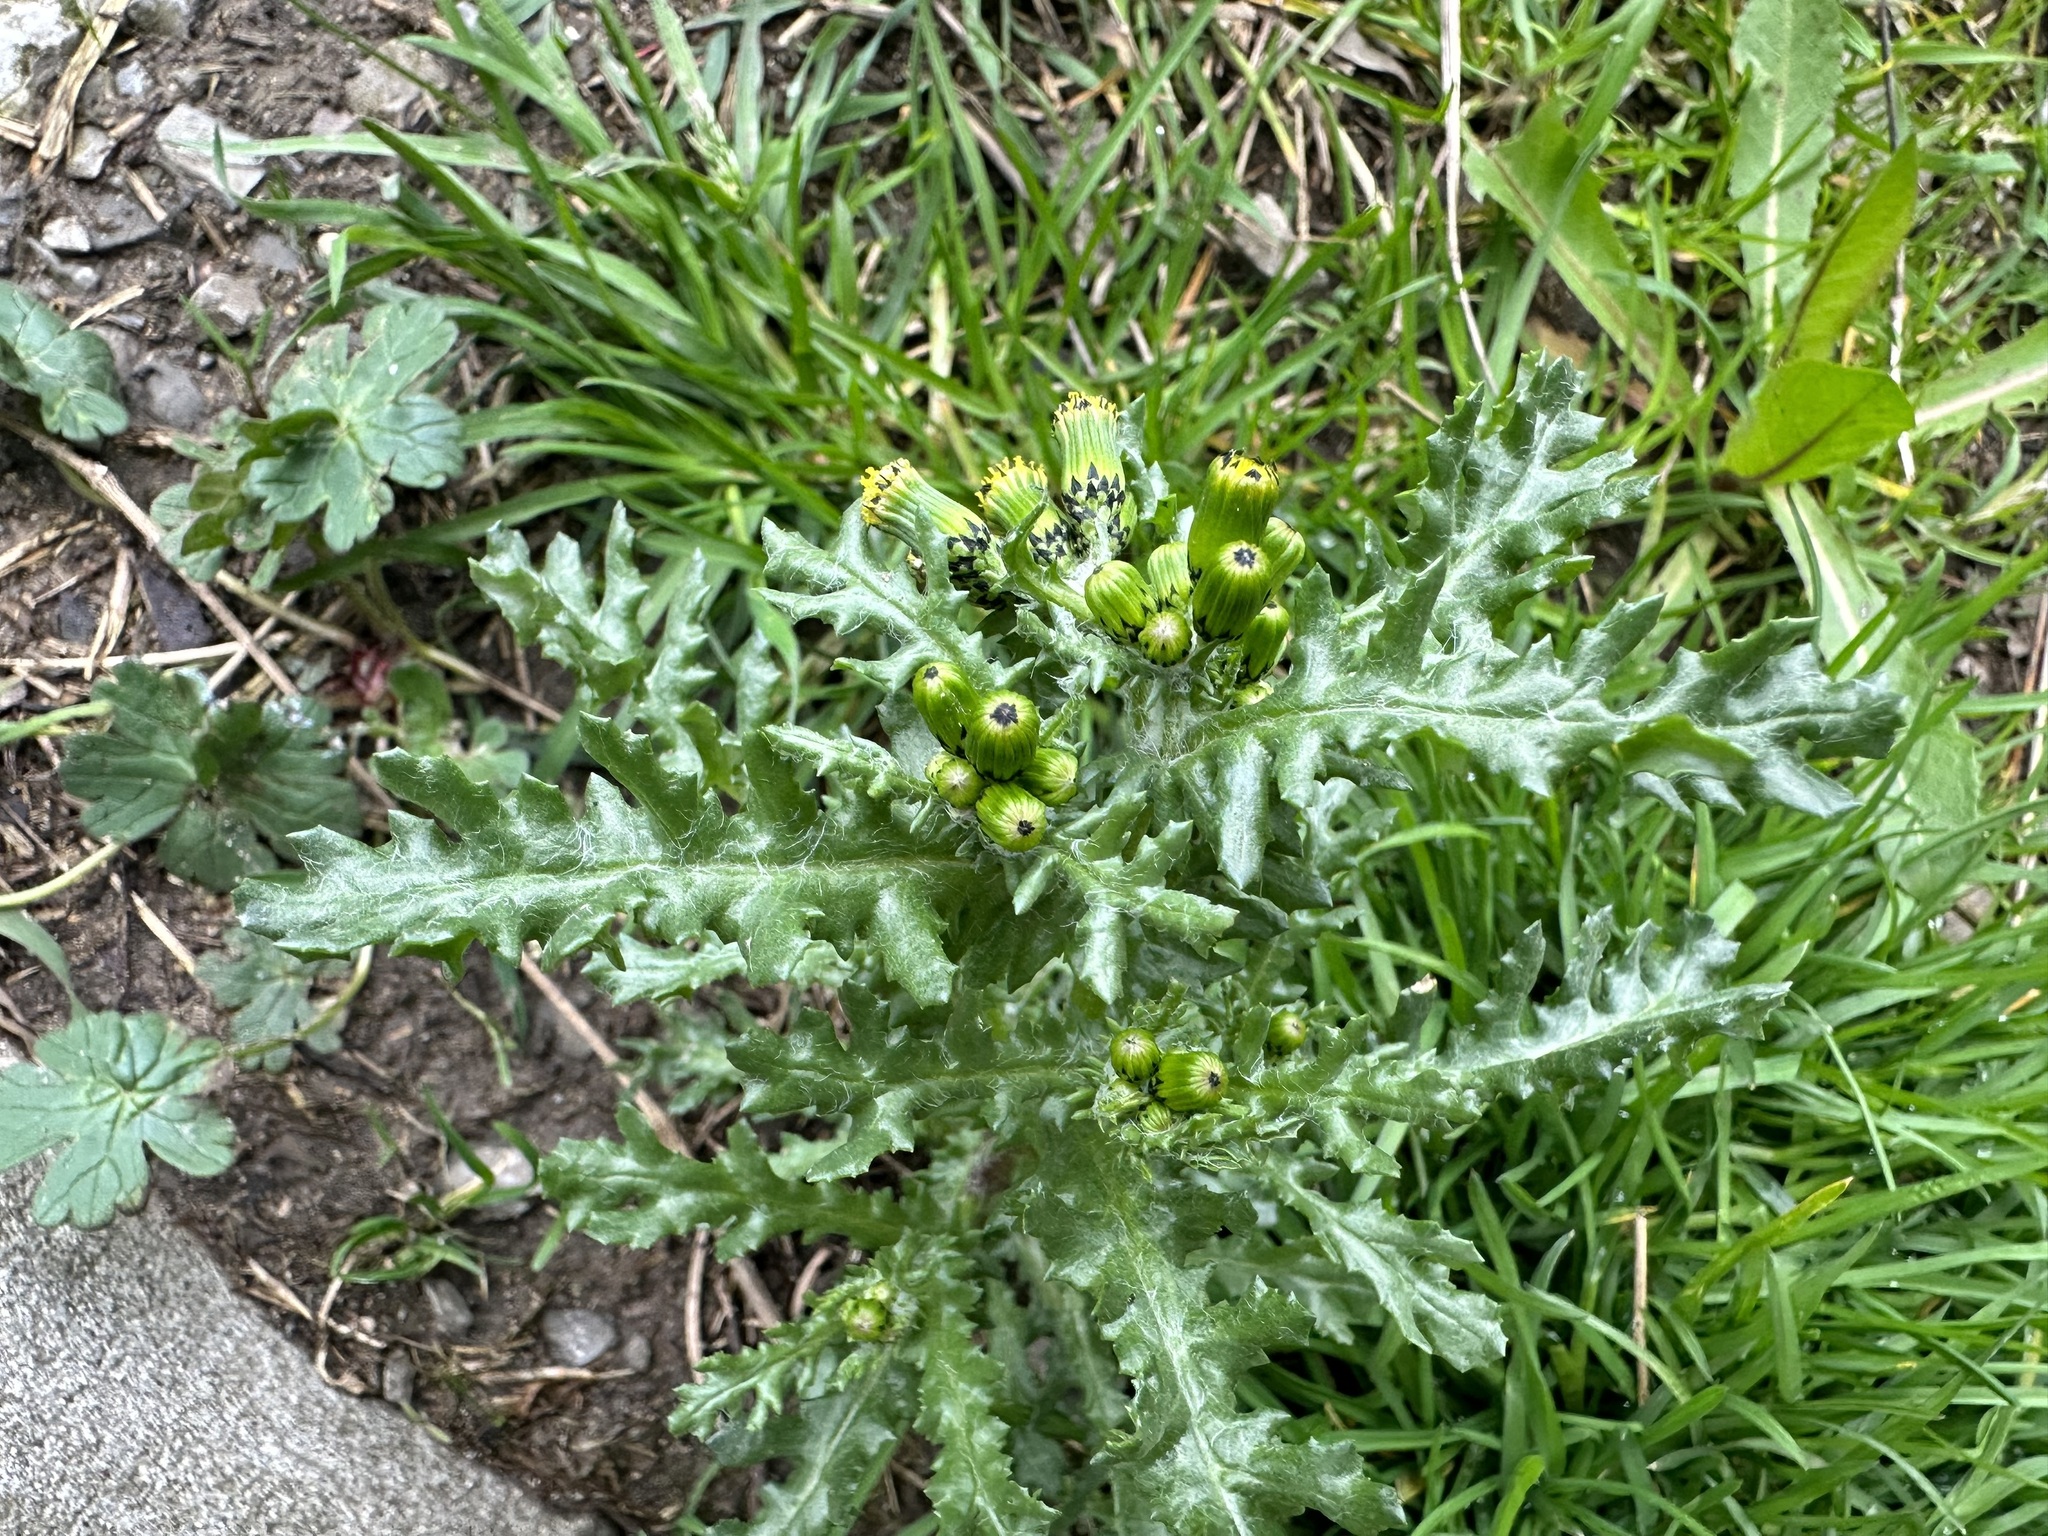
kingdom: Plantae
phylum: Tracheophyta
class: Magnoliopsida
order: Asterales
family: Asteraceae
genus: Senecio
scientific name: Senecio vulgaris
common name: Old-man-in-the-spring
